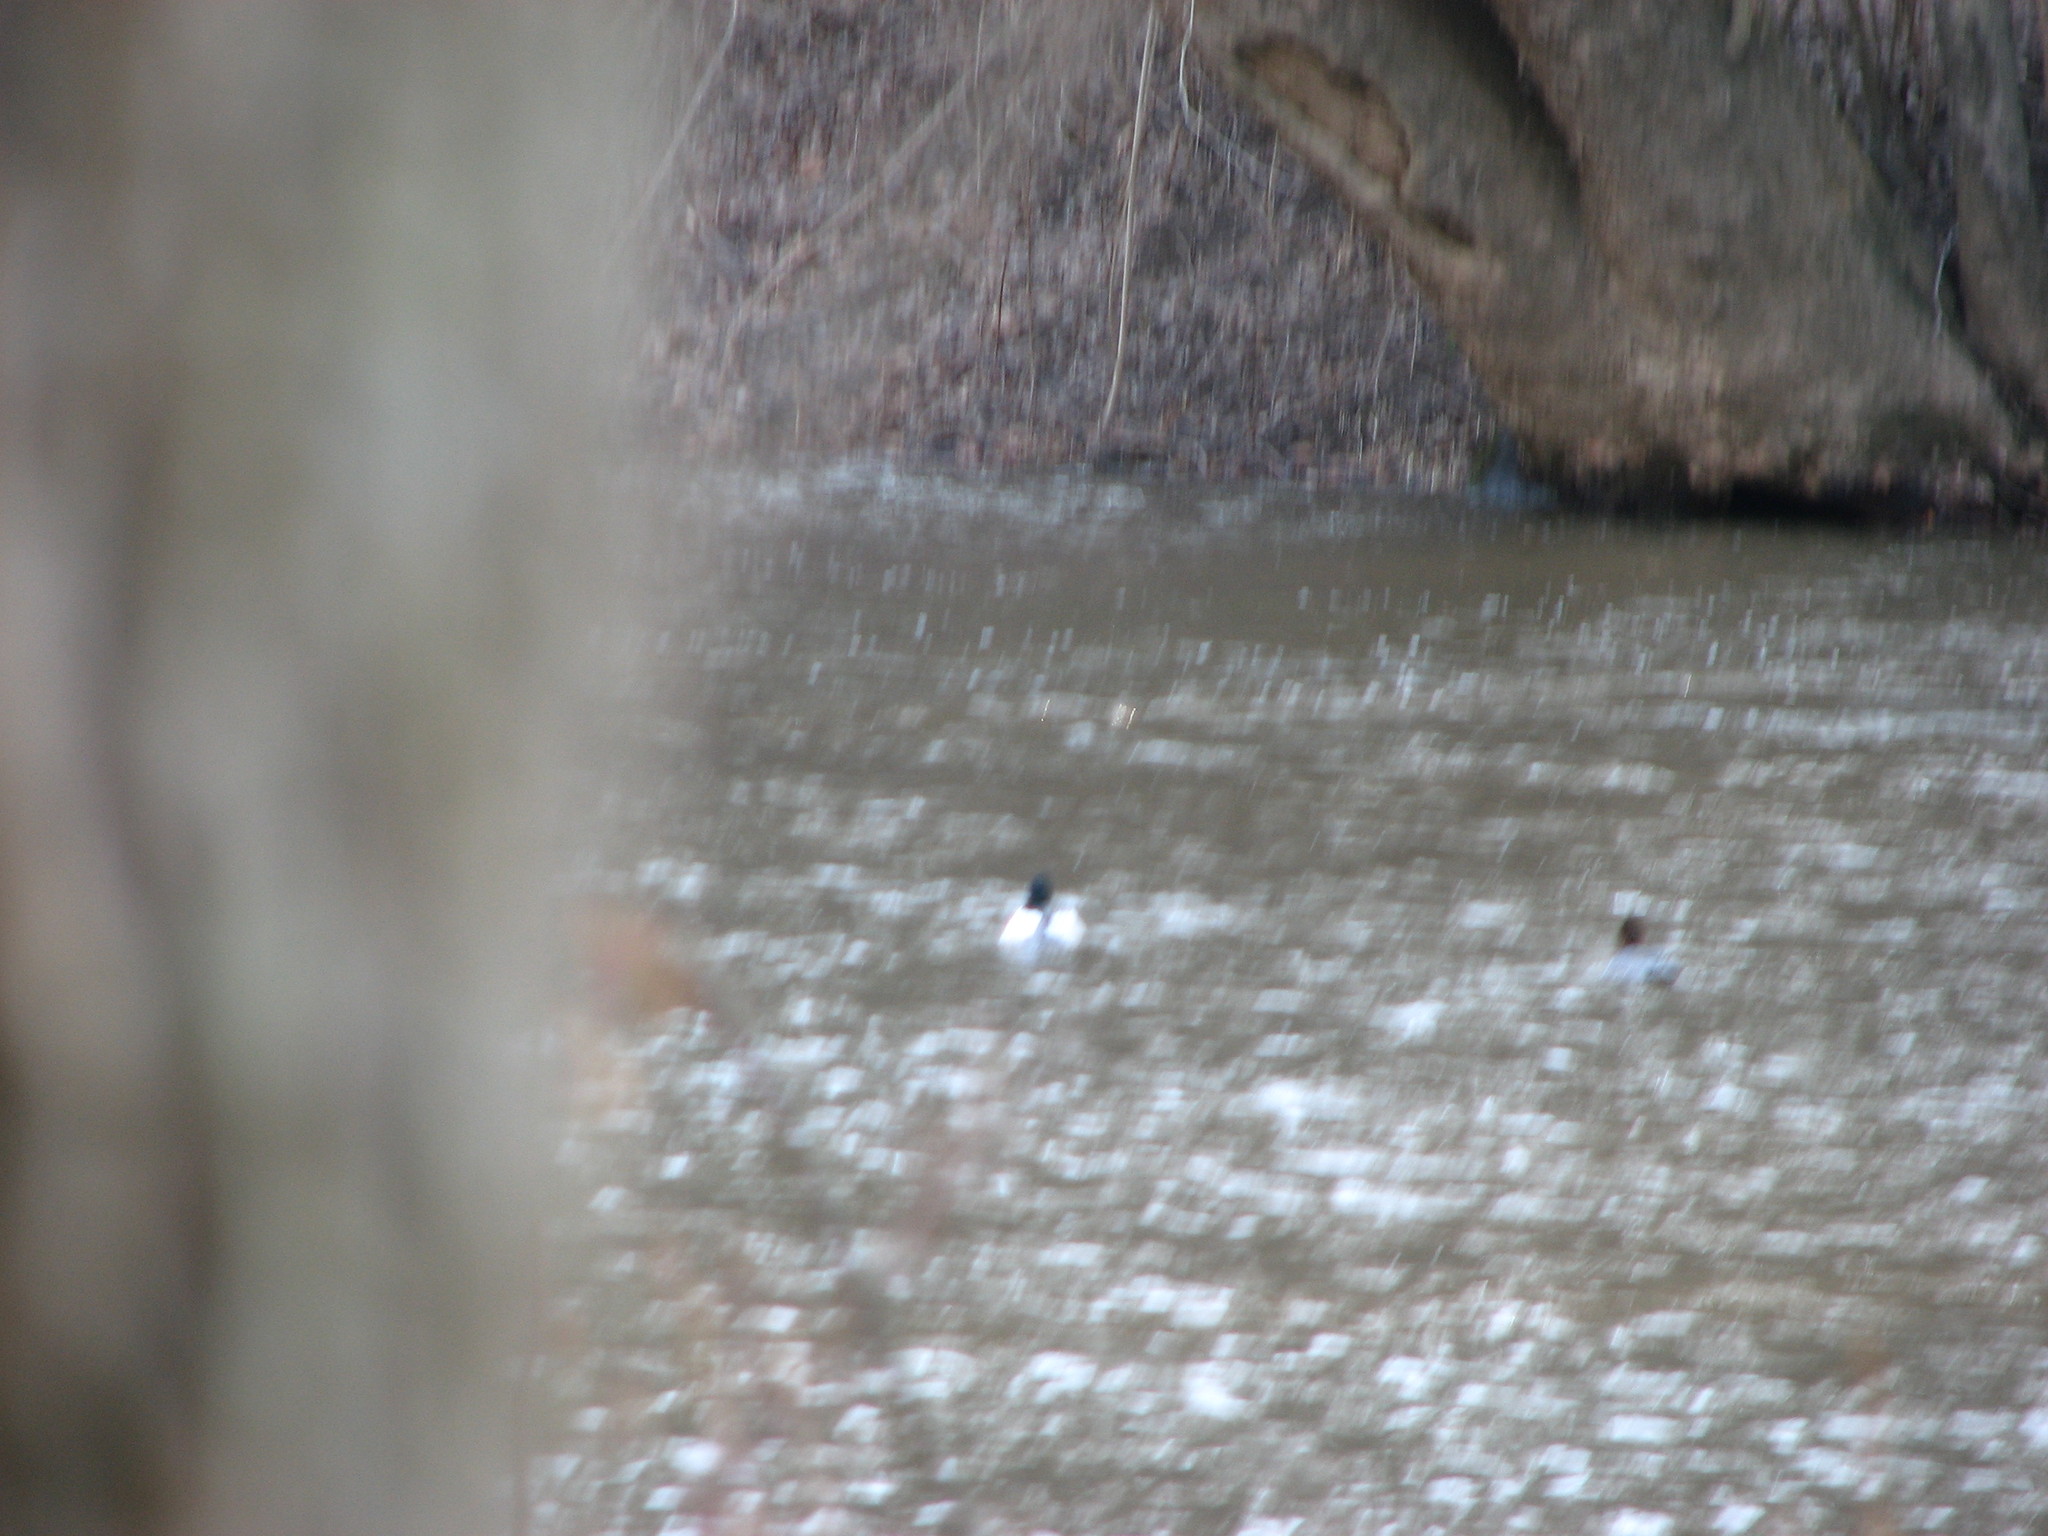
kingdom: Animalia
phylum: Chordata
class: Aves
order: Anseriformes
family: Anatidae
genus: Mergus
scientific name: Mergus merganser
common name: Common merganser
